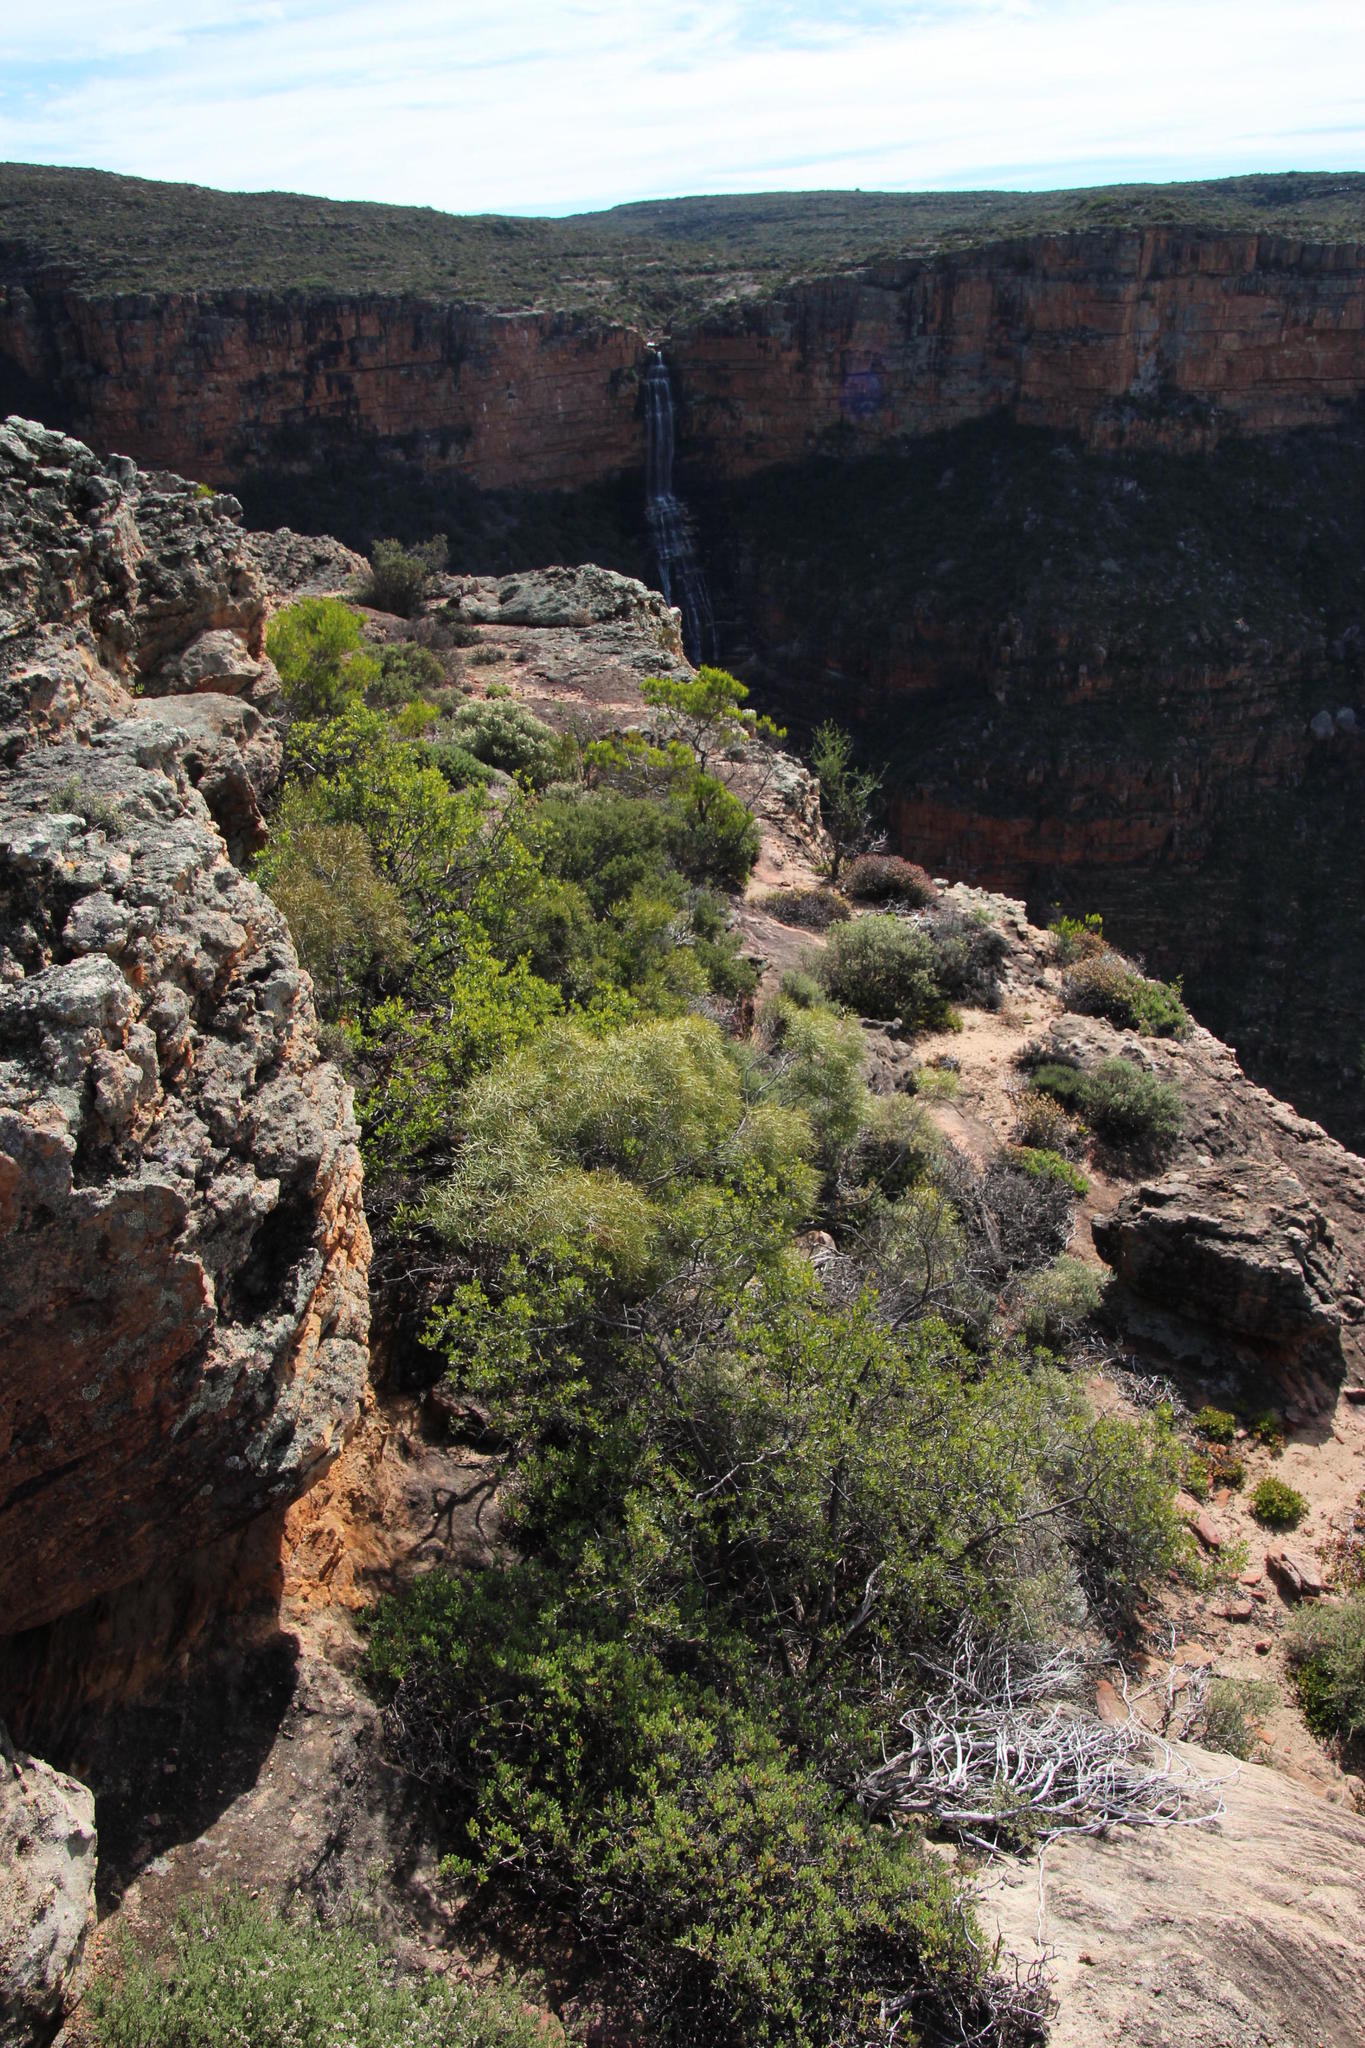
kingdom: Plantae
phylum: Tracheophyta
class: Magnoliopsida
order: Ericales
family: Ebenaceae
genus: Euclea
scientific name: Euclea linearis
